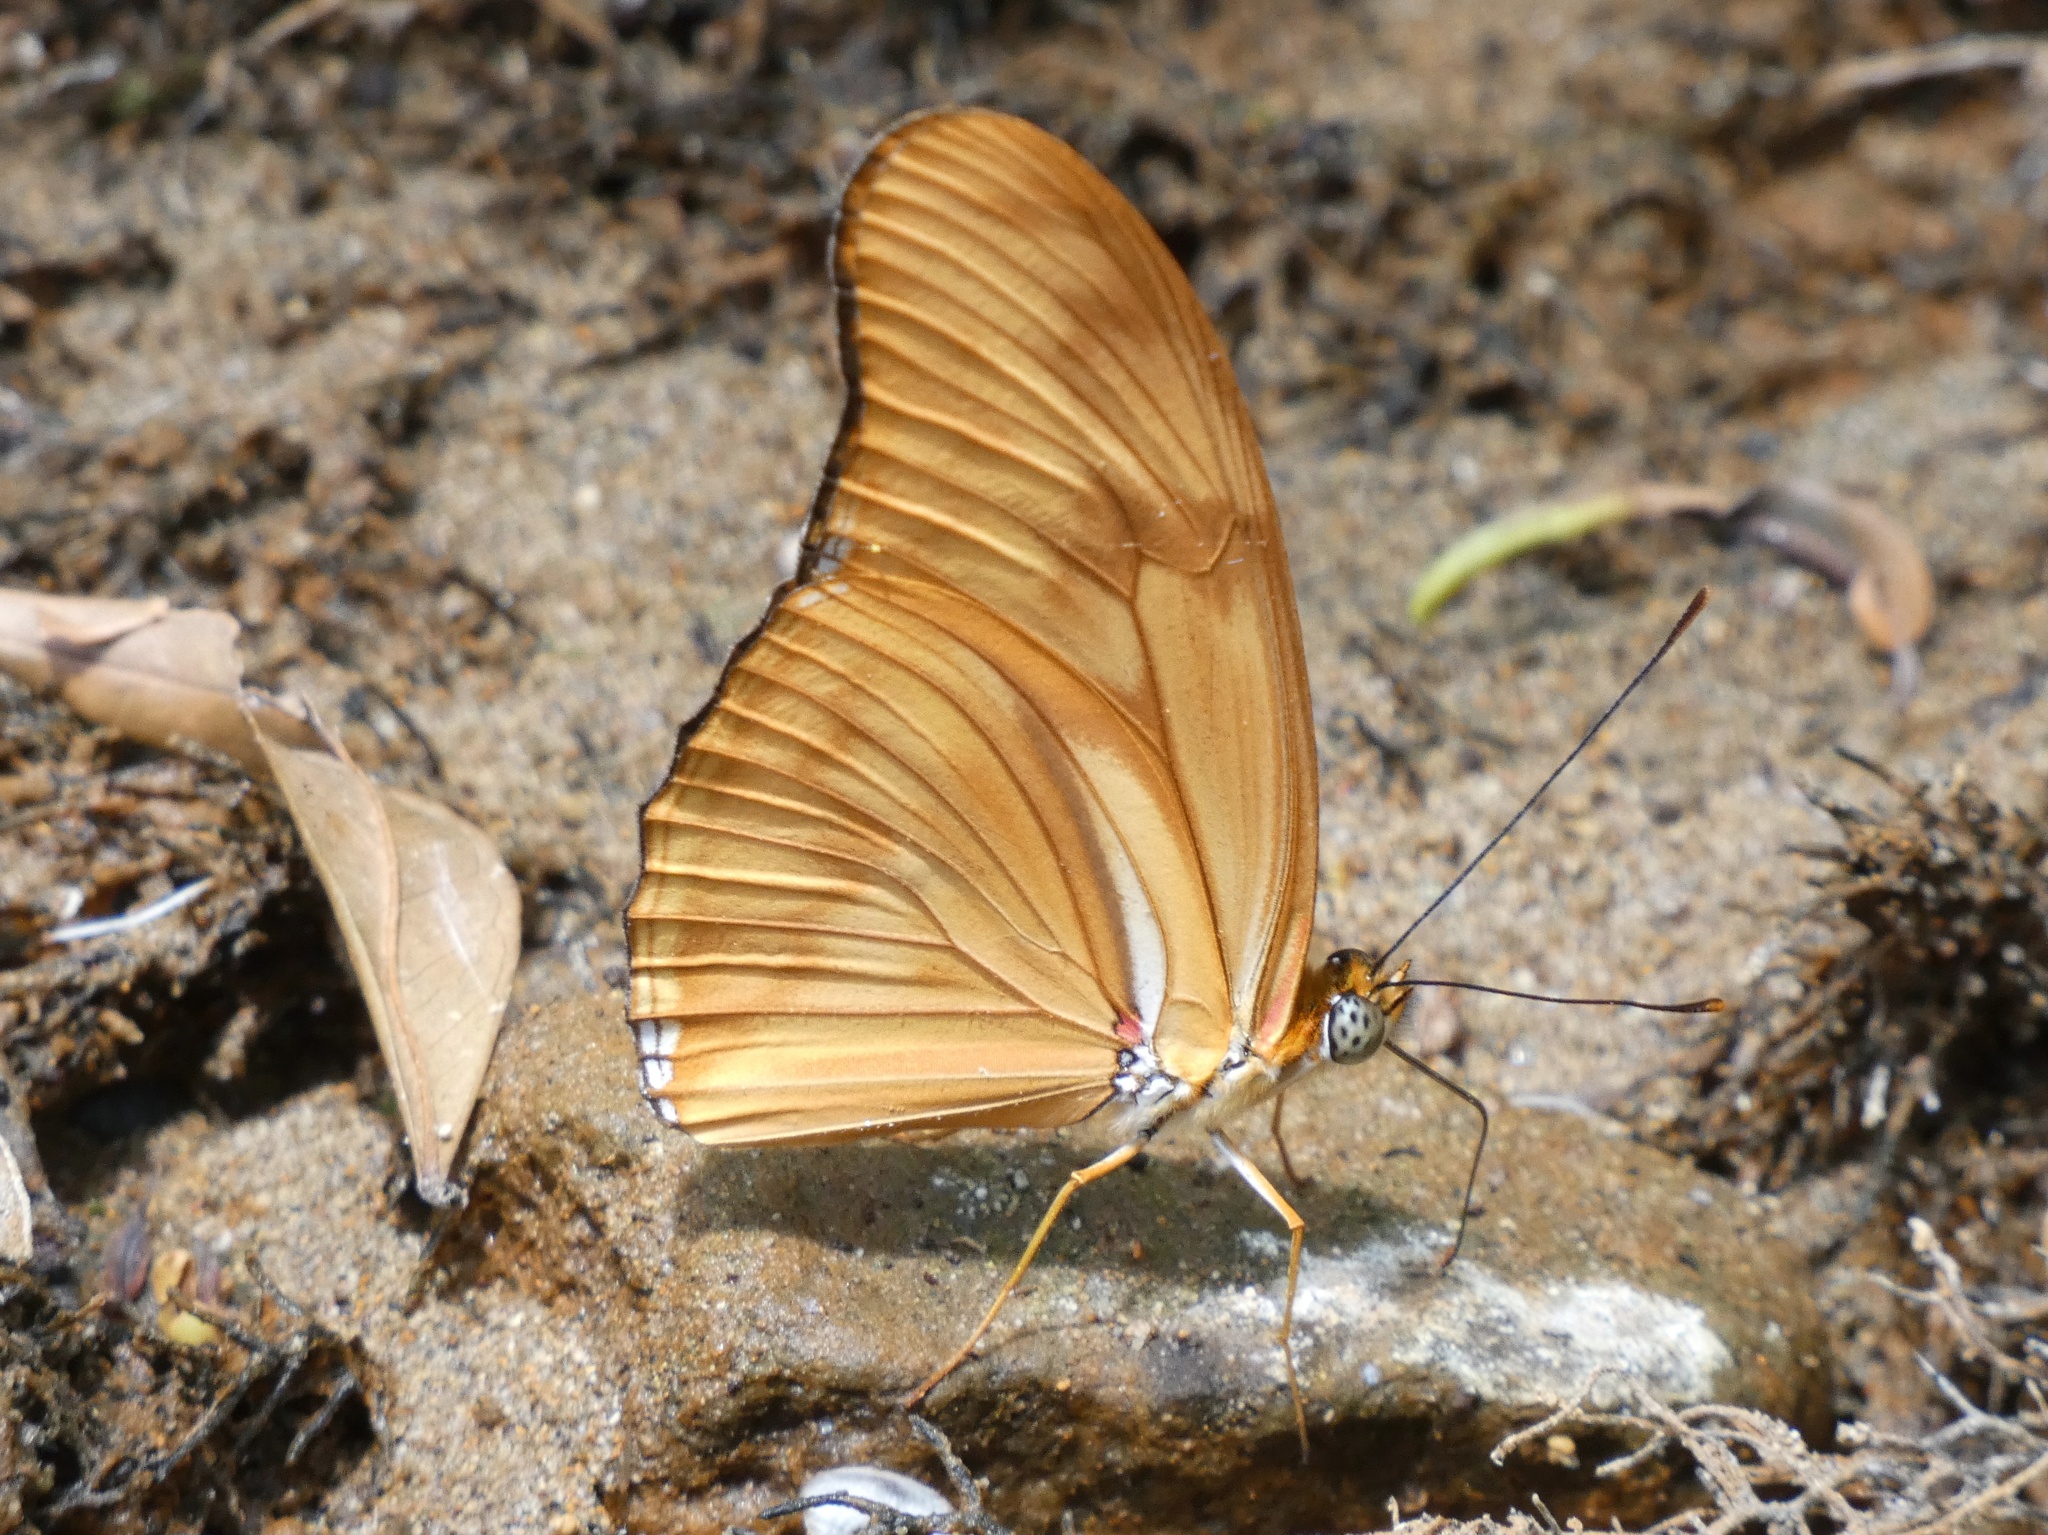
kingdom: Animalia
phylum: Arthropoda
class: Insecta
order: Lepidoptera
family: Nymphalidae
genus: Dryas
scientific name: Dryas iulia
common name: Flambeau
